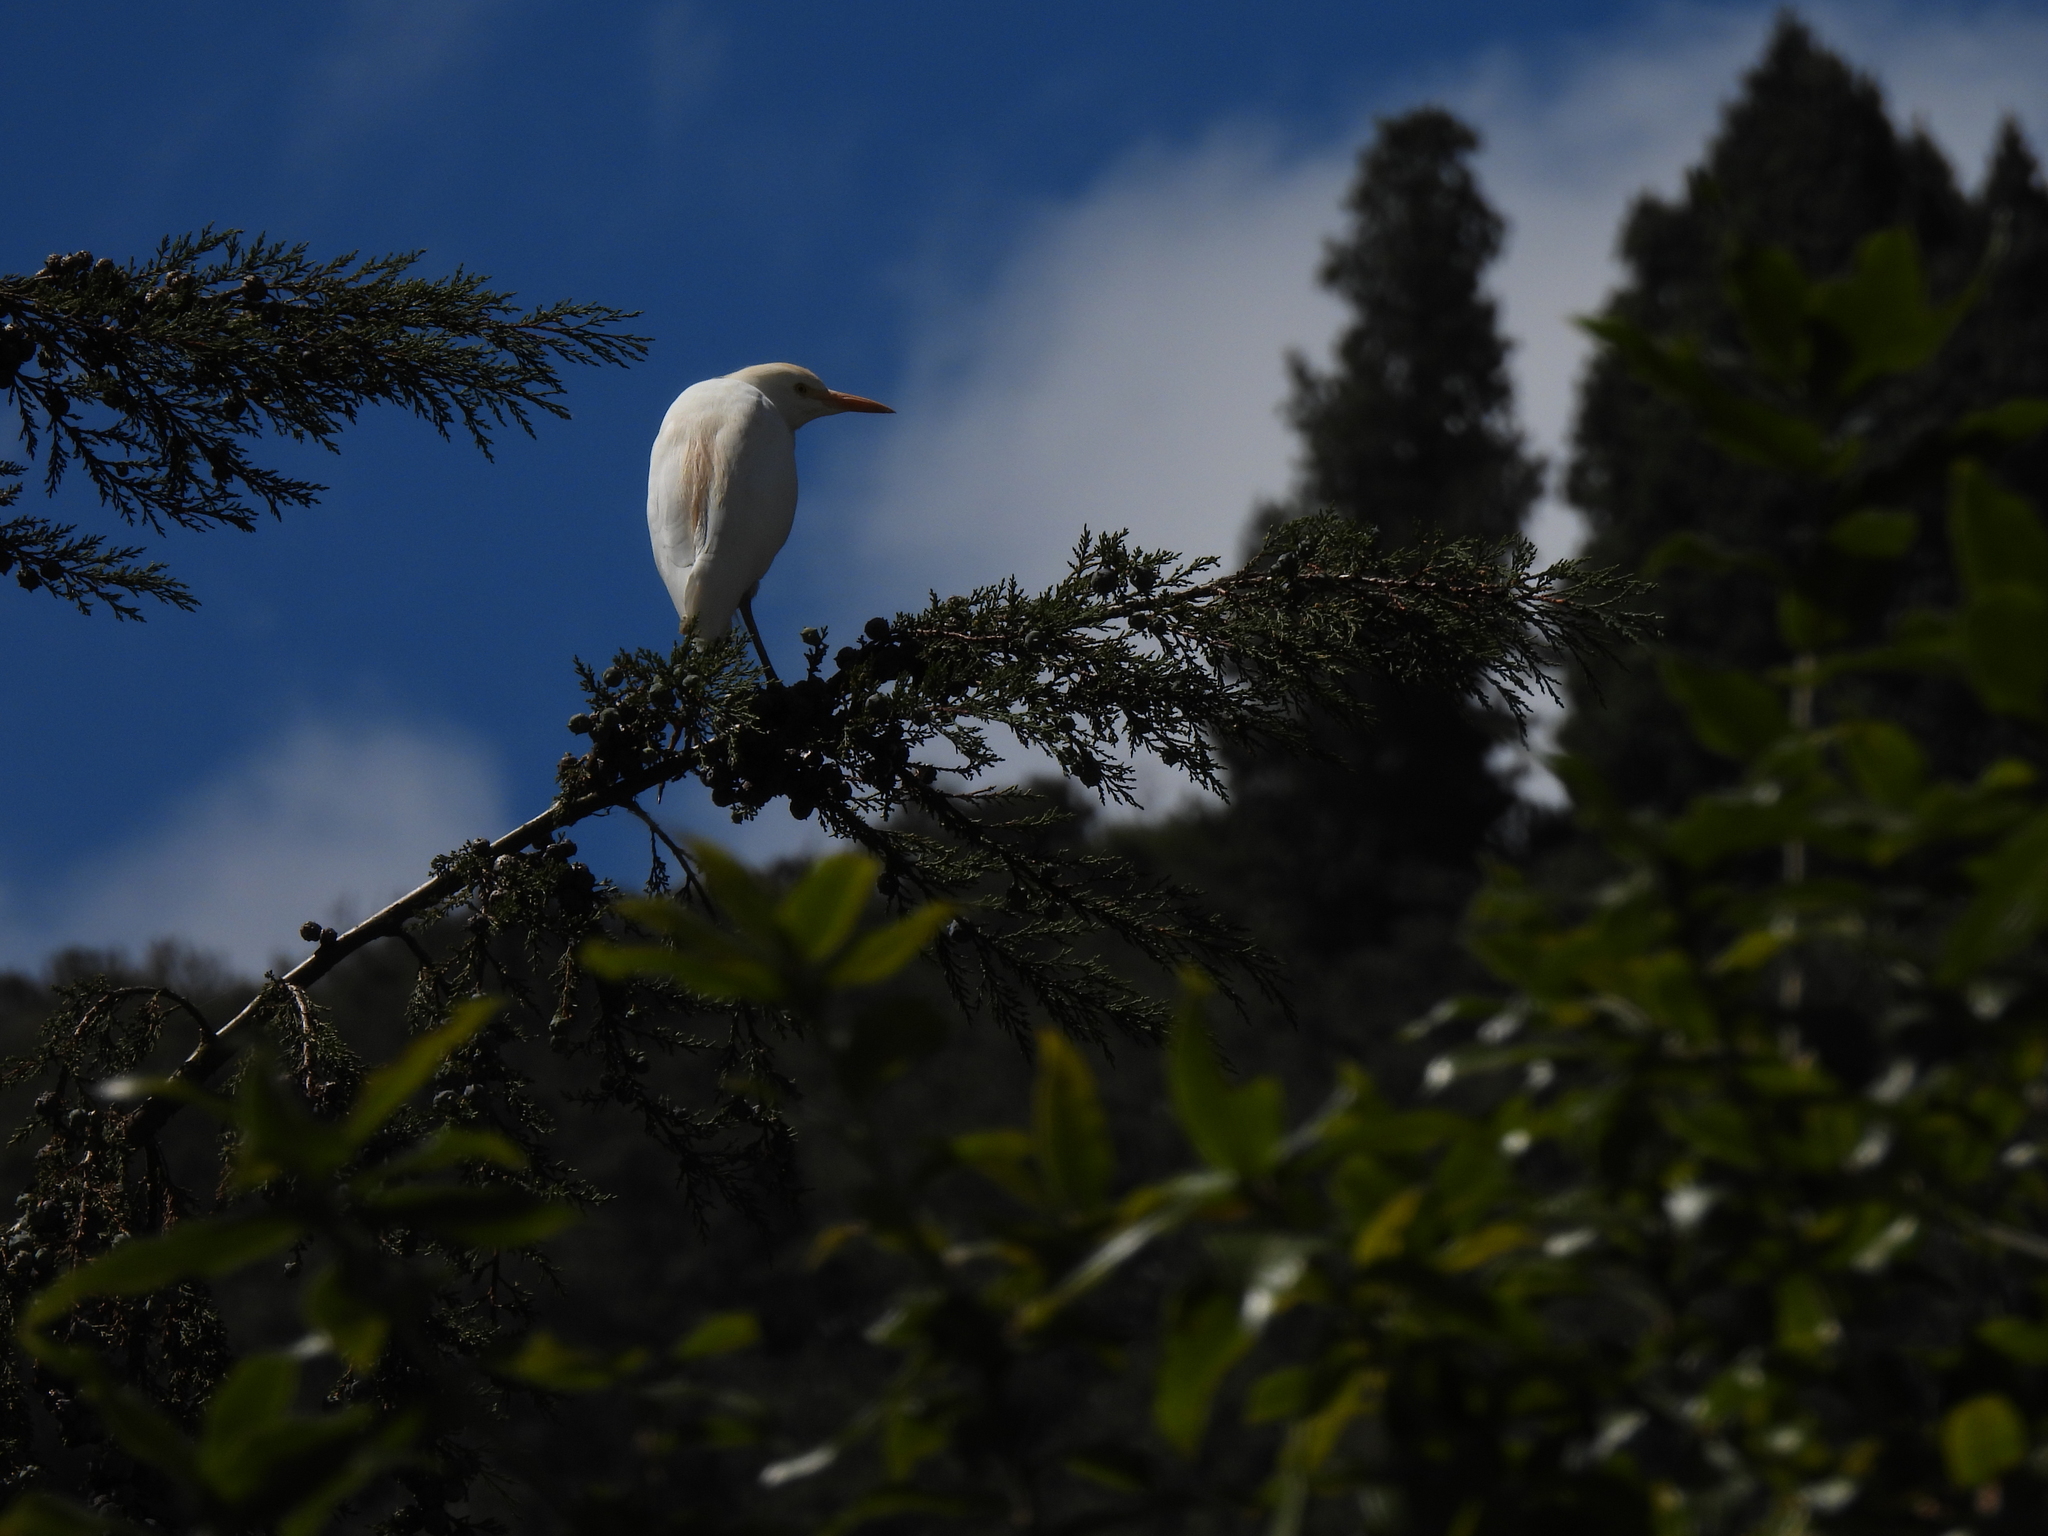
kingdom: Animalia
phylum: Chordata
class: Aves
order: Pelecaniformes
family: Ardeidae
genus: Bubulcus
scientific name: Bubulcus ibis
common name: Cattle egret
